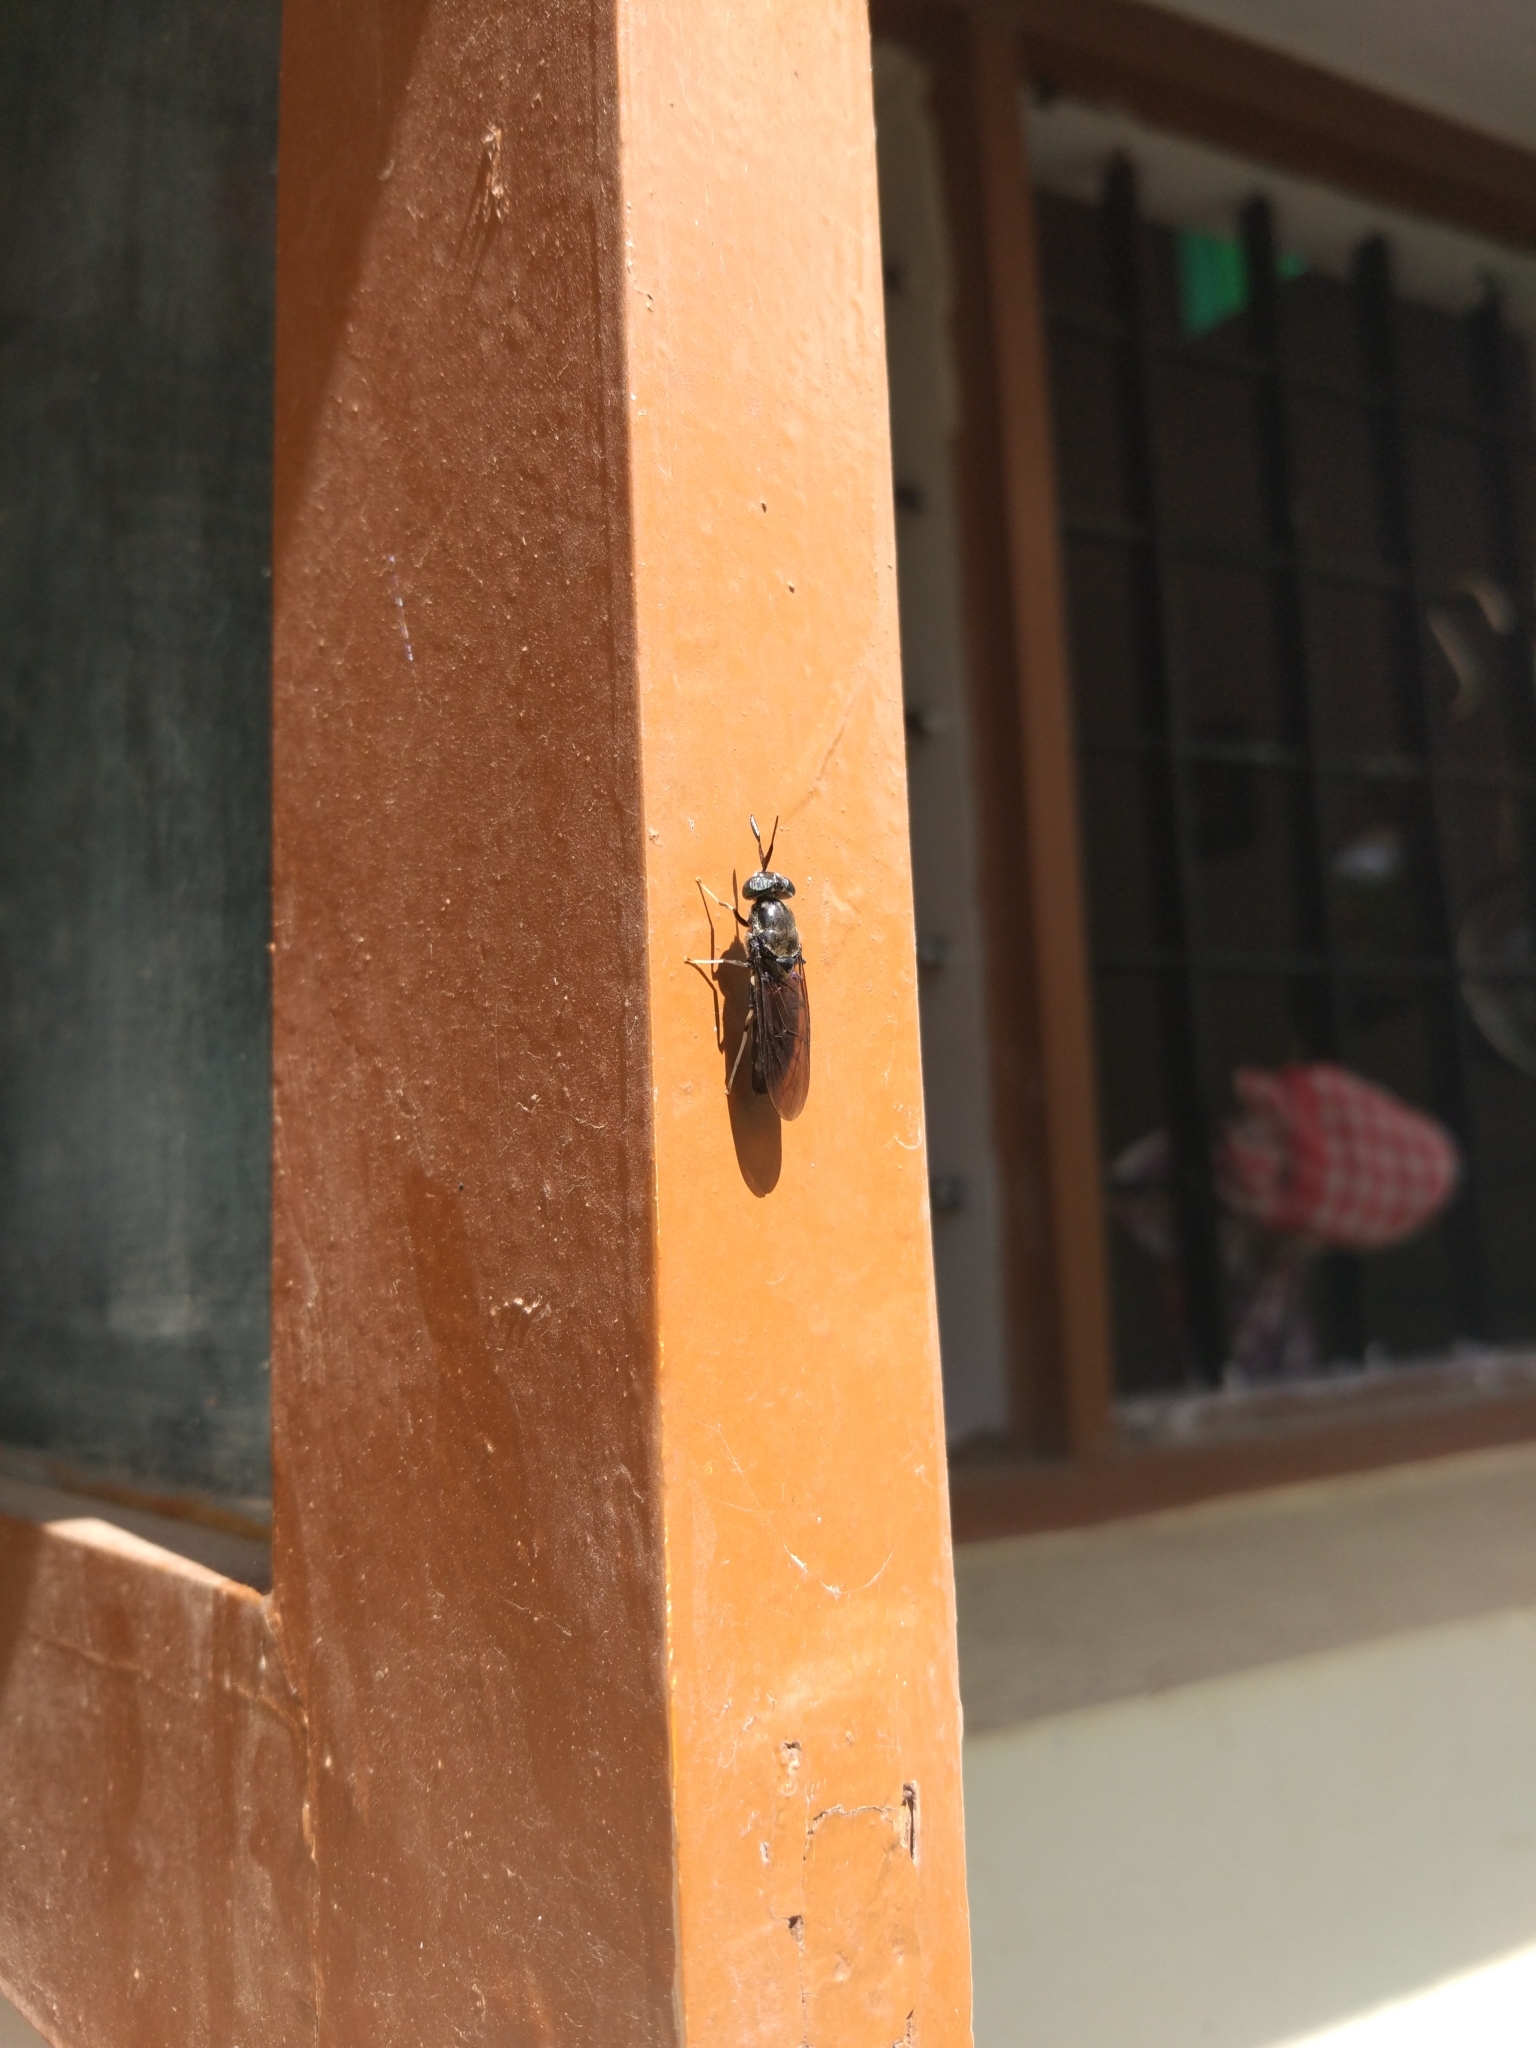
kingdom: Animalia
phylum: Arthropoda
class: Insecta
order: Diptera
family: Stratiomyidae
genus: Hermetia
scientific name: Hermetia illucens
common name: Black soldier fly
